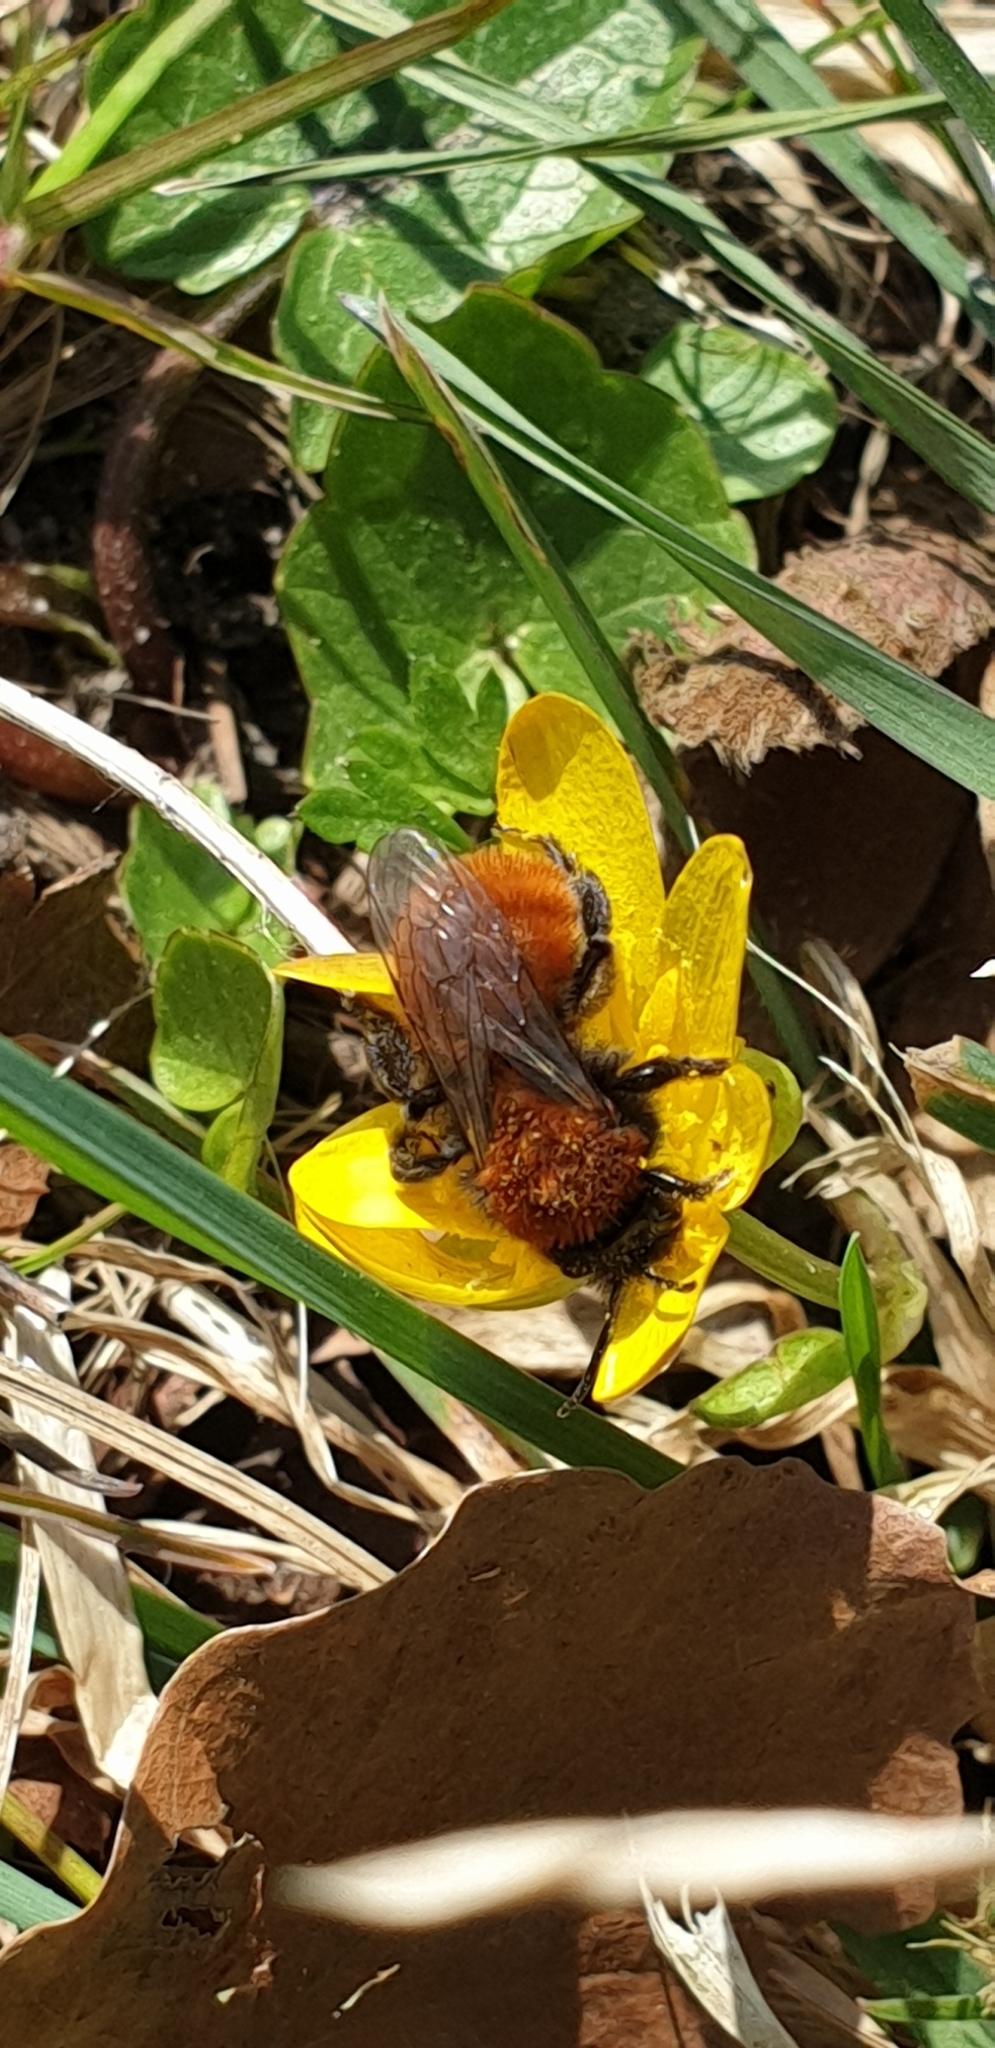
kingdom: Animalia
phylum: Arthropoda
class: Insecta
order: Hymenoptera
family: Andrenidae
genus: Andrena
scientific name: Andrena fulva
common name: Tawny mining bee
